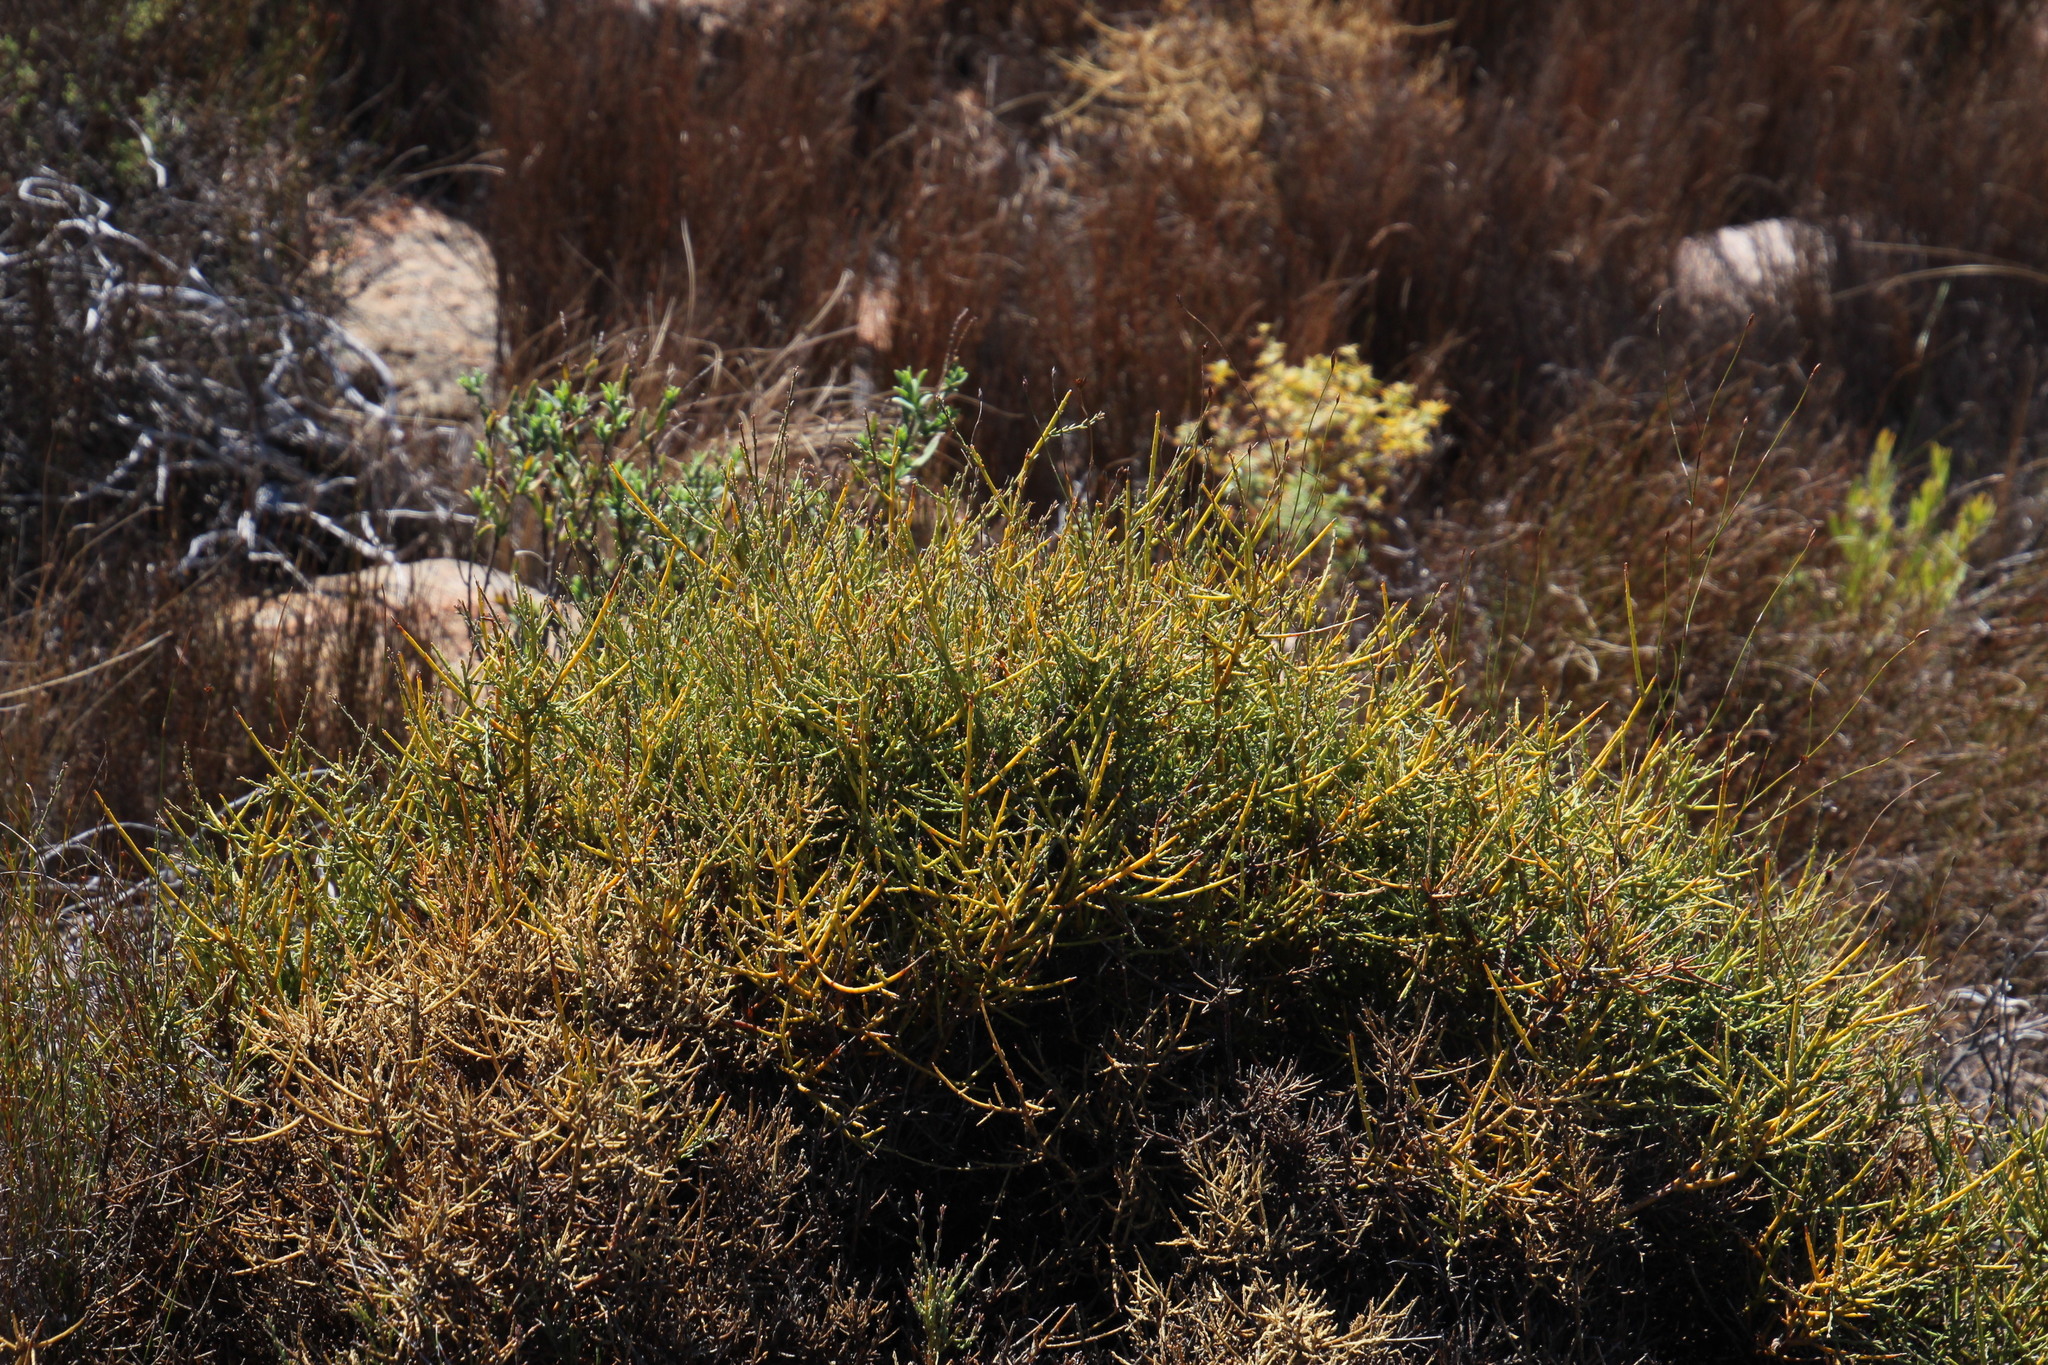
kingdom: Plantae
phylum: Tracheophyta
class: Magnoliopsida
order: Fabales
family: Polygalaceae
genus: Muraltia
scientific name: Muraltia rigida
